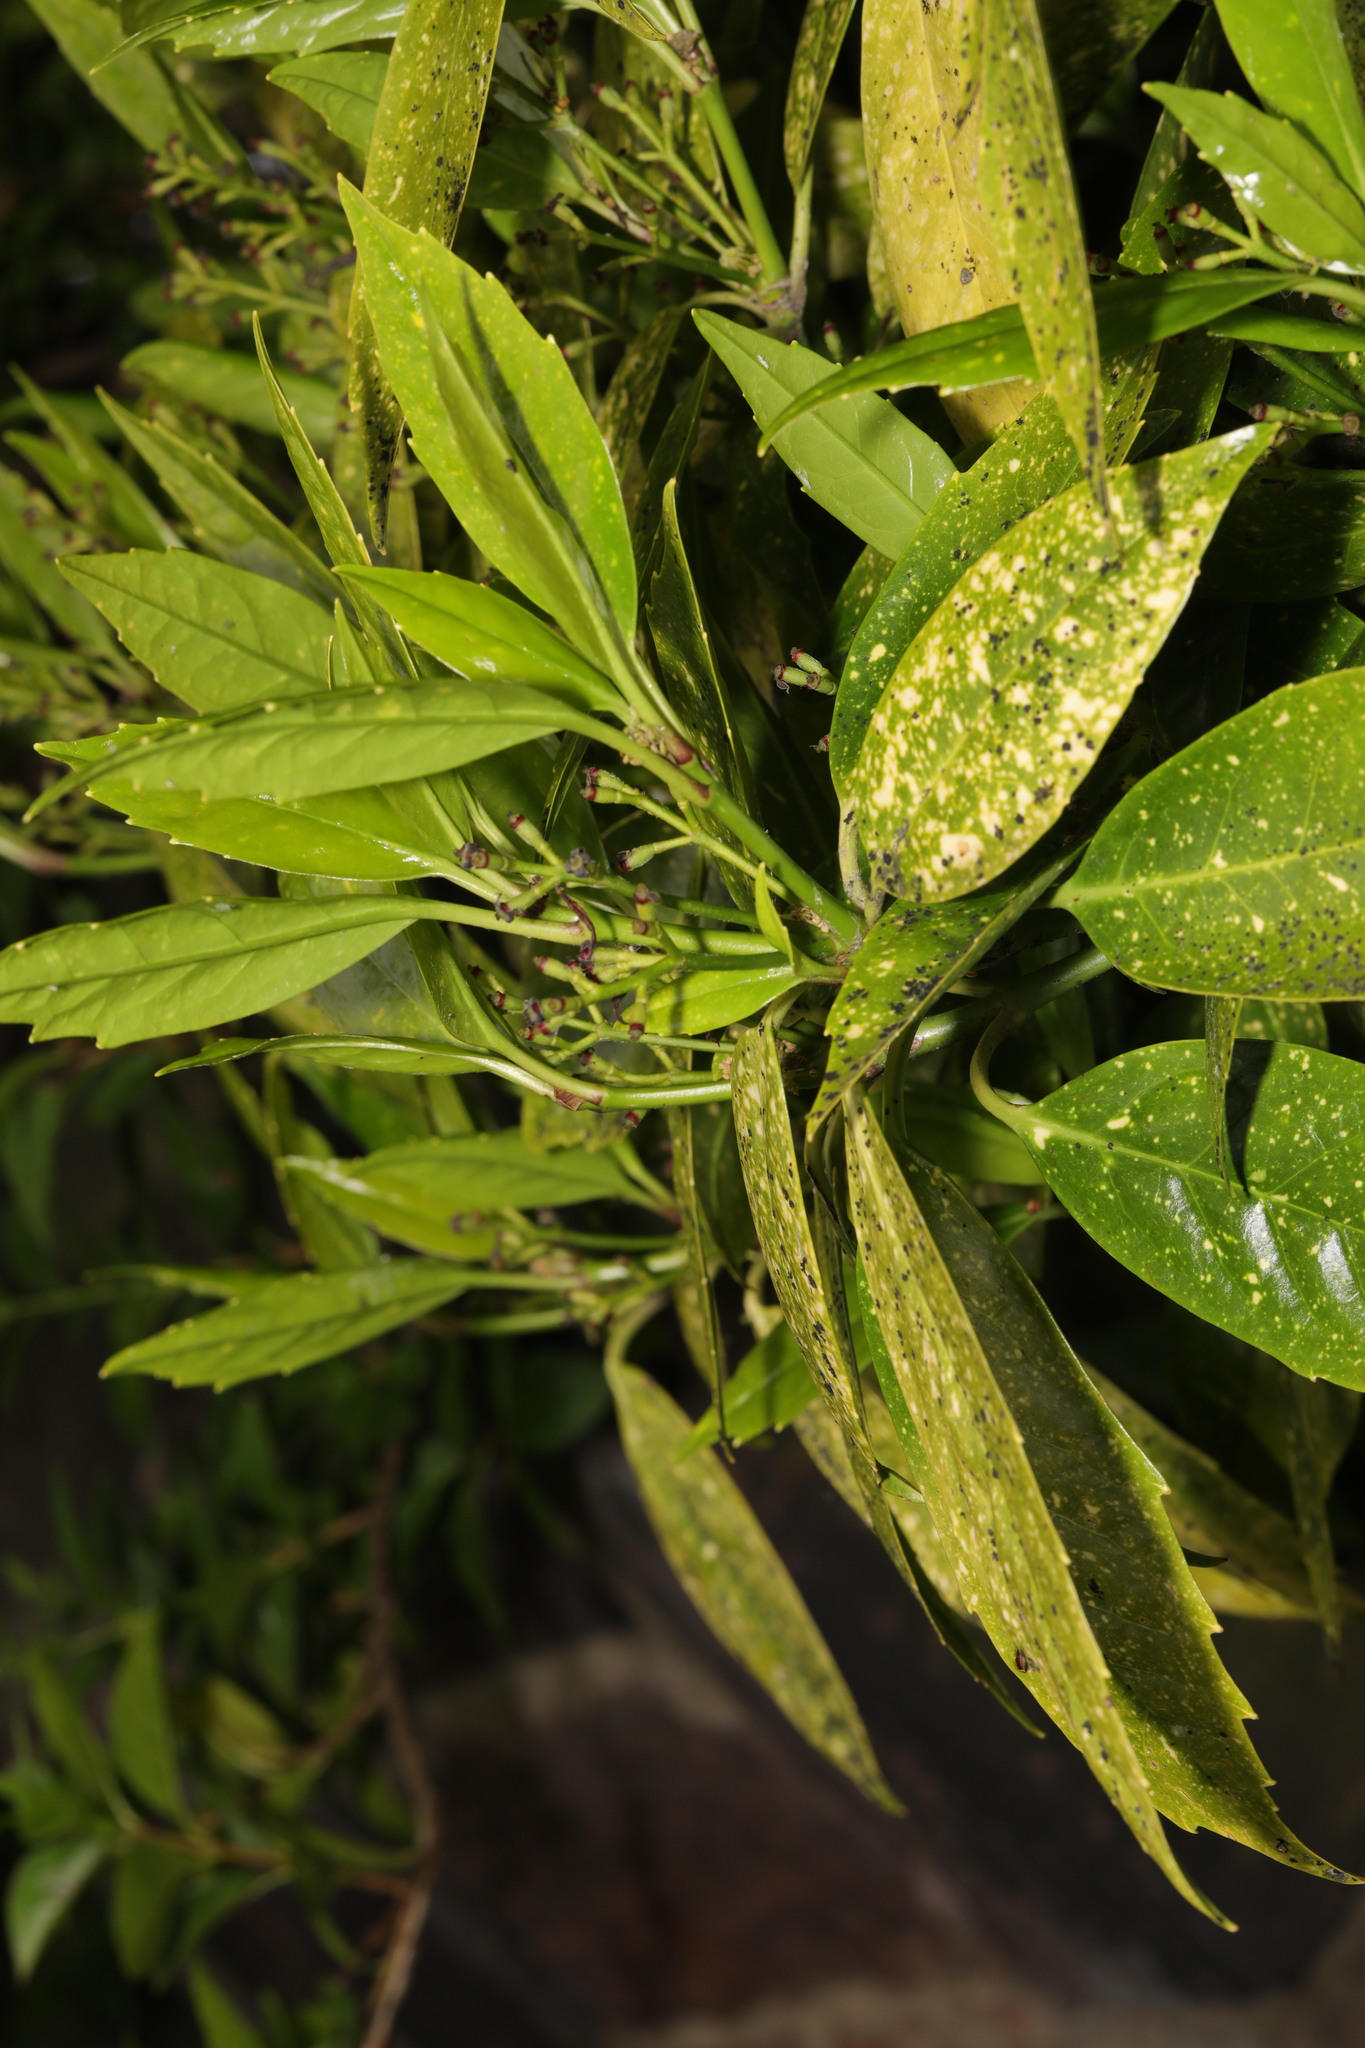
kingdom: Plantae
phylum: Tracheophyta
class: Magnoliopsida
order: Garryales
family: Garryaceae
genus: Aucuba
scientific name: Aucuba japonica
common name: Spotted-laurel
